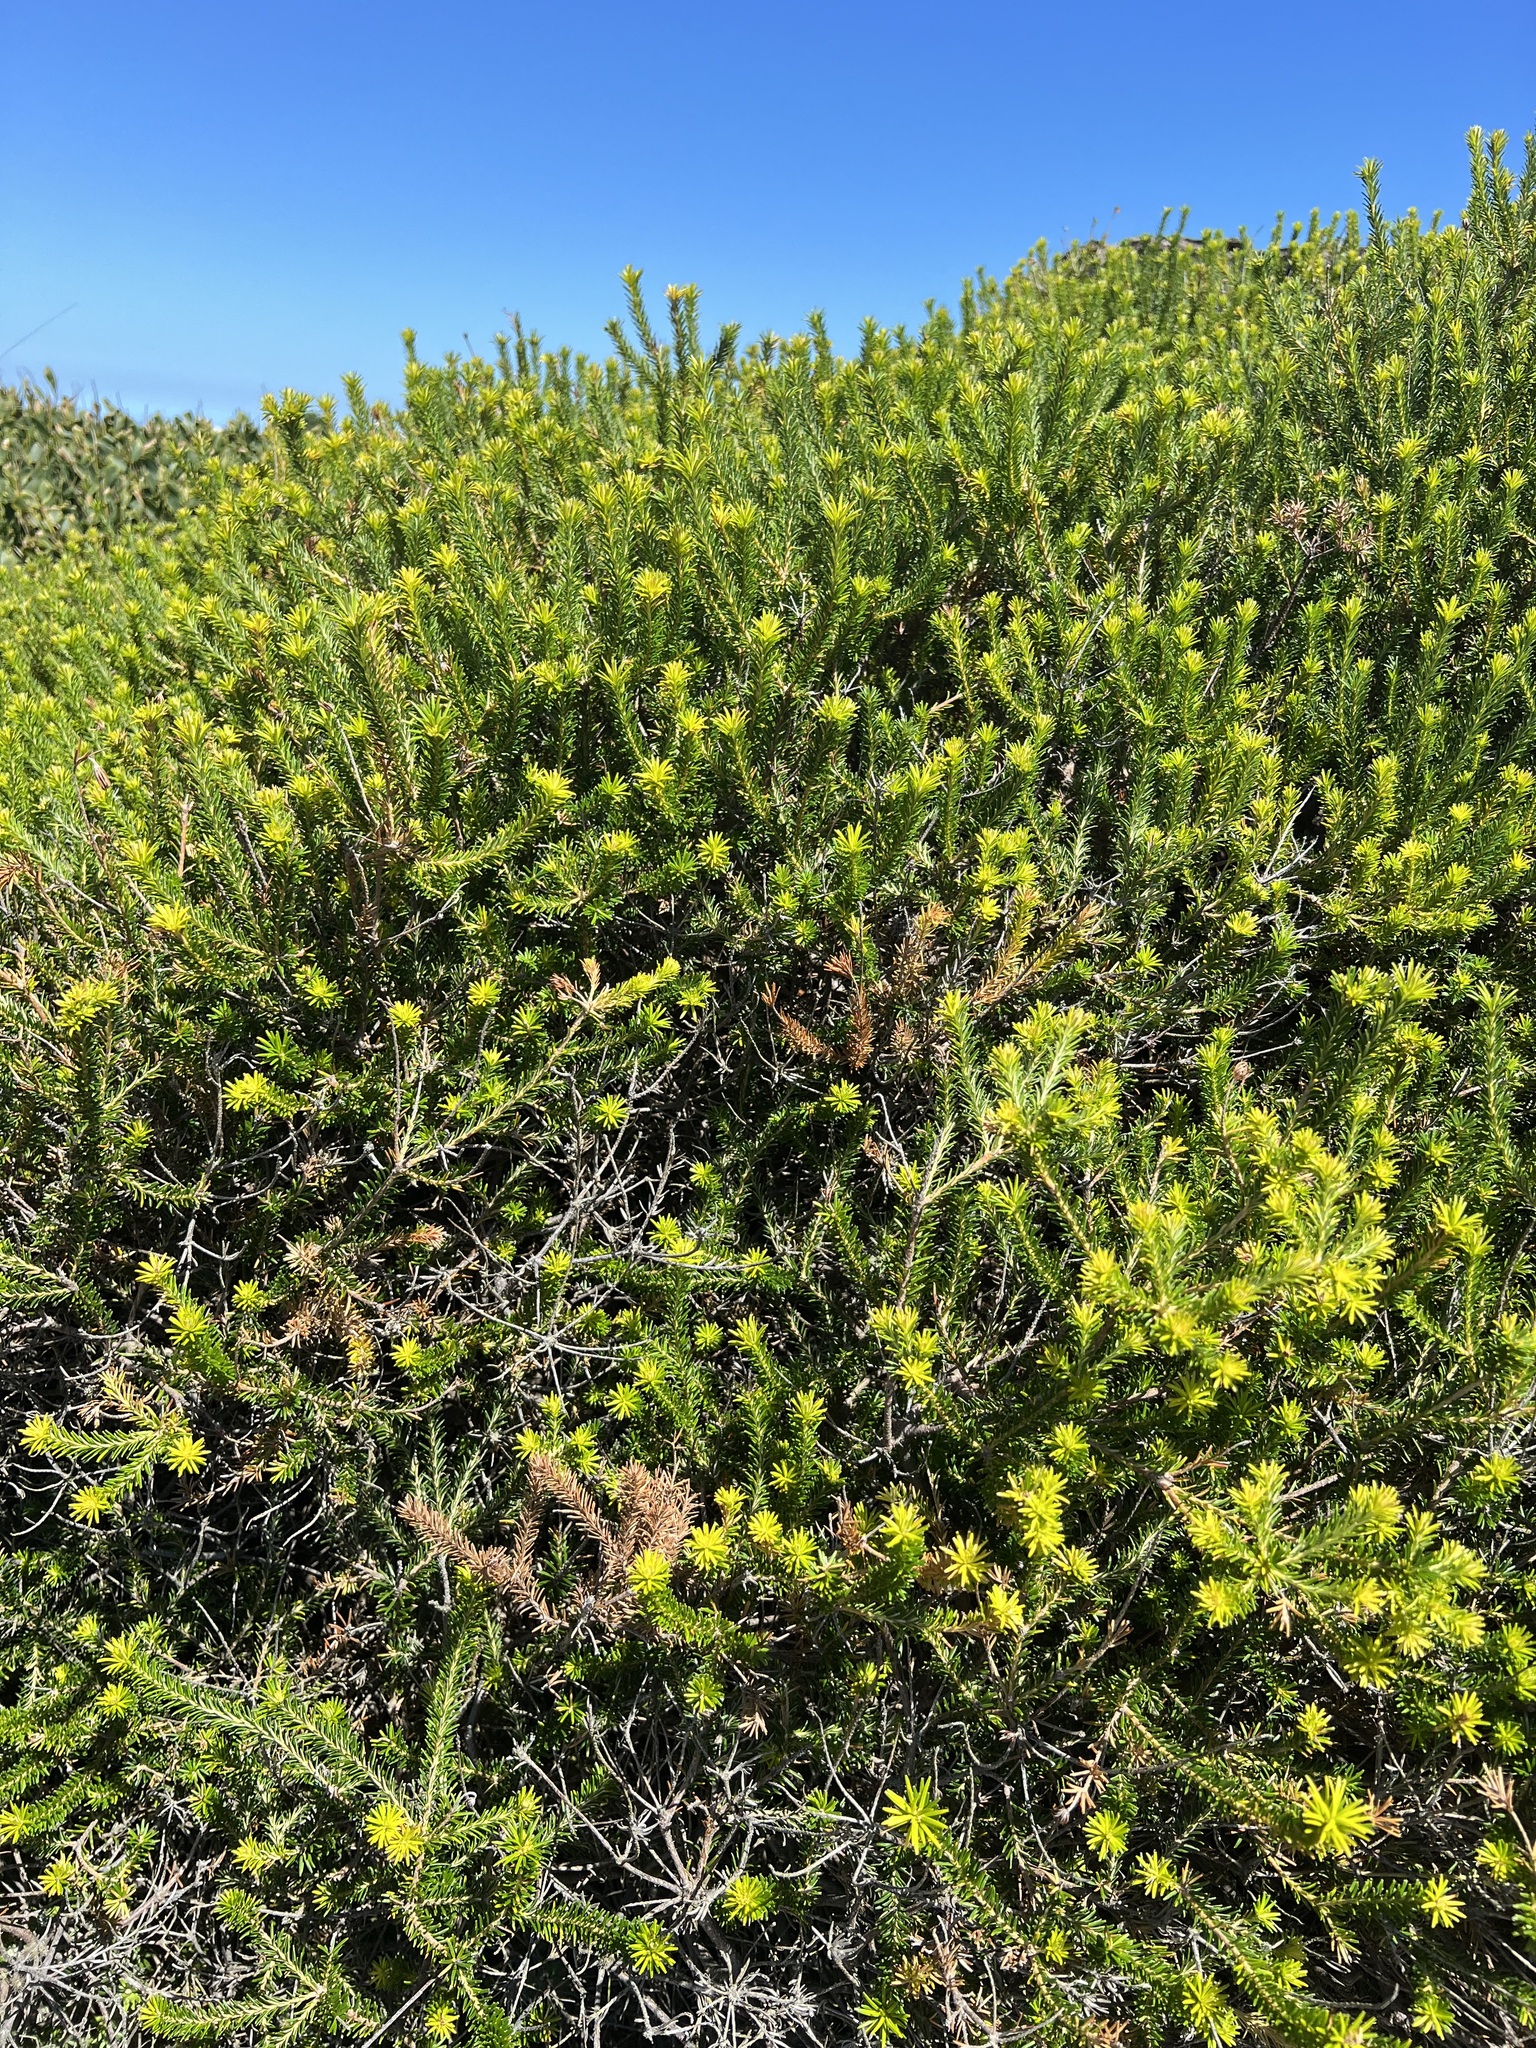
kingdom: Plantae
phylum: Tracheophyta
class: Magnoliopsida
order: Proteales
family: Proteaceae
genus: Banksia
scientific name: Banksia ericifolia
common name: Heath-leaf banksia
